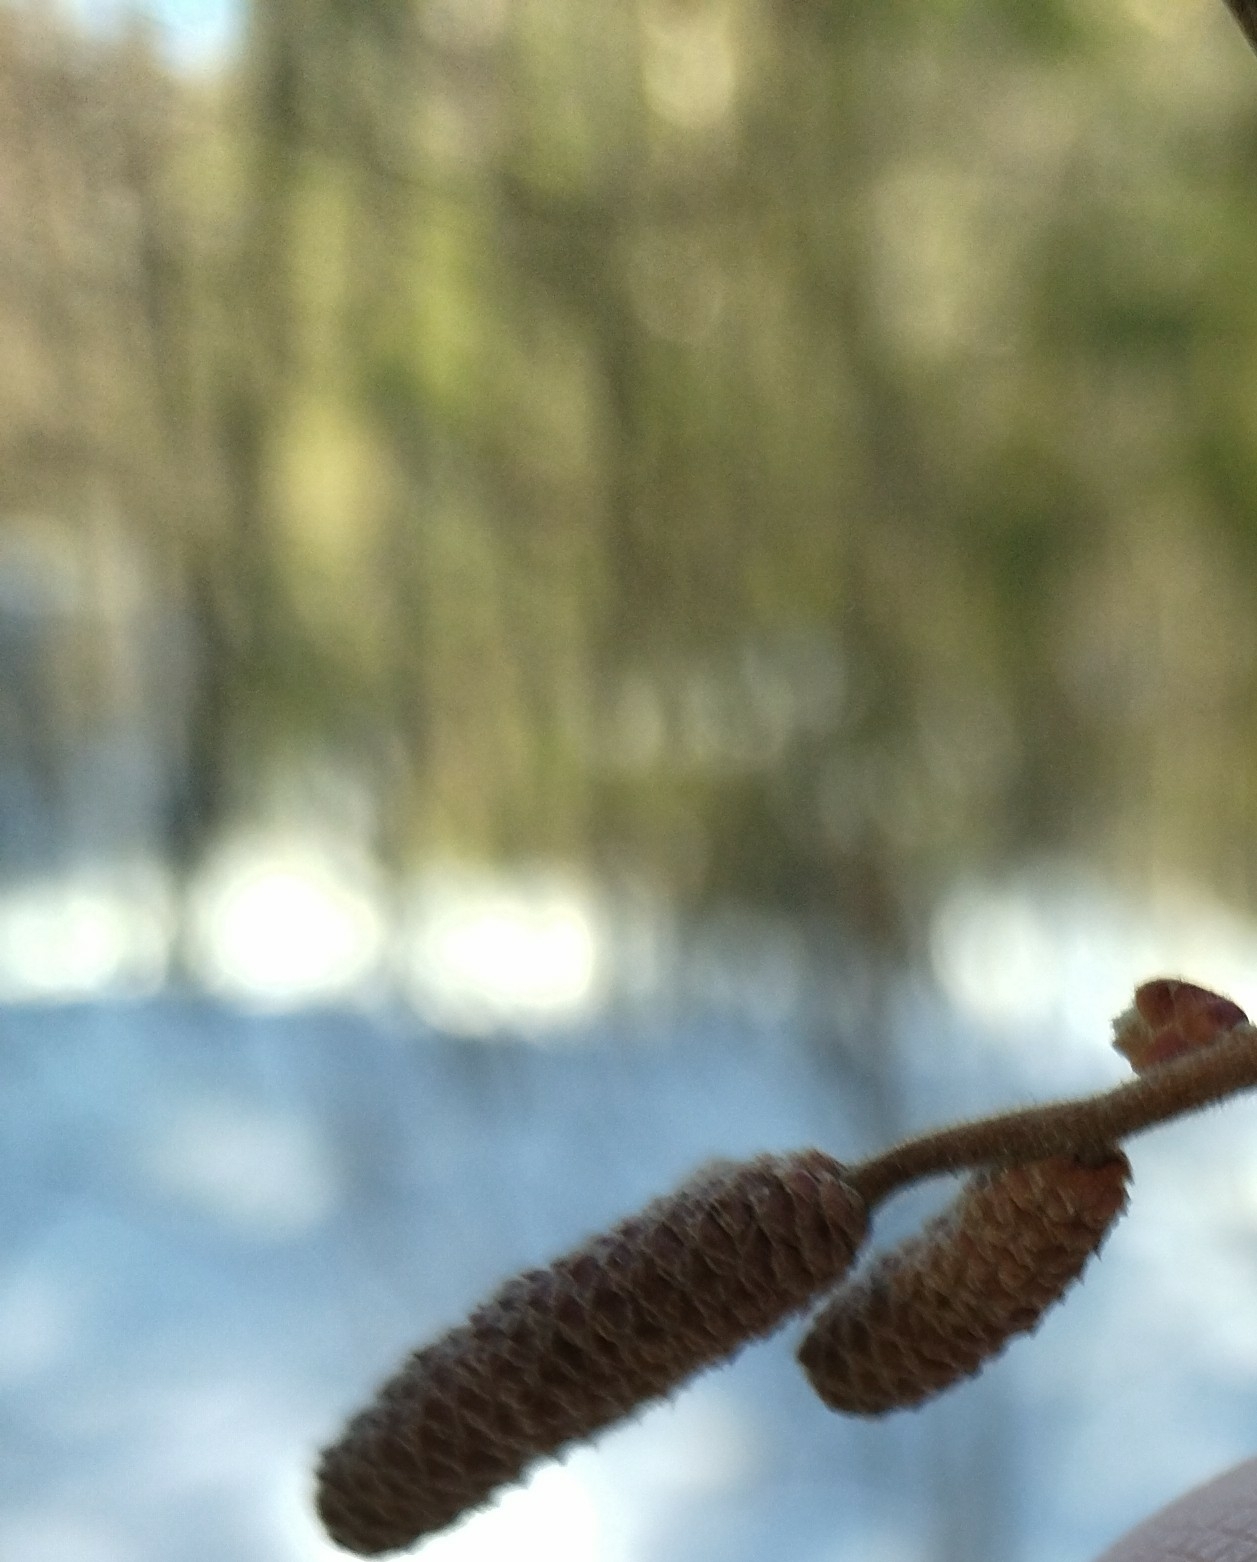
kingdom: Plantae
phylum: Tracheophyta
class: Magnoliopsida
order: Fagales
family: Betulaceae
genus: Corylus
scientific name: Corylus avellana
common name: European hazel
